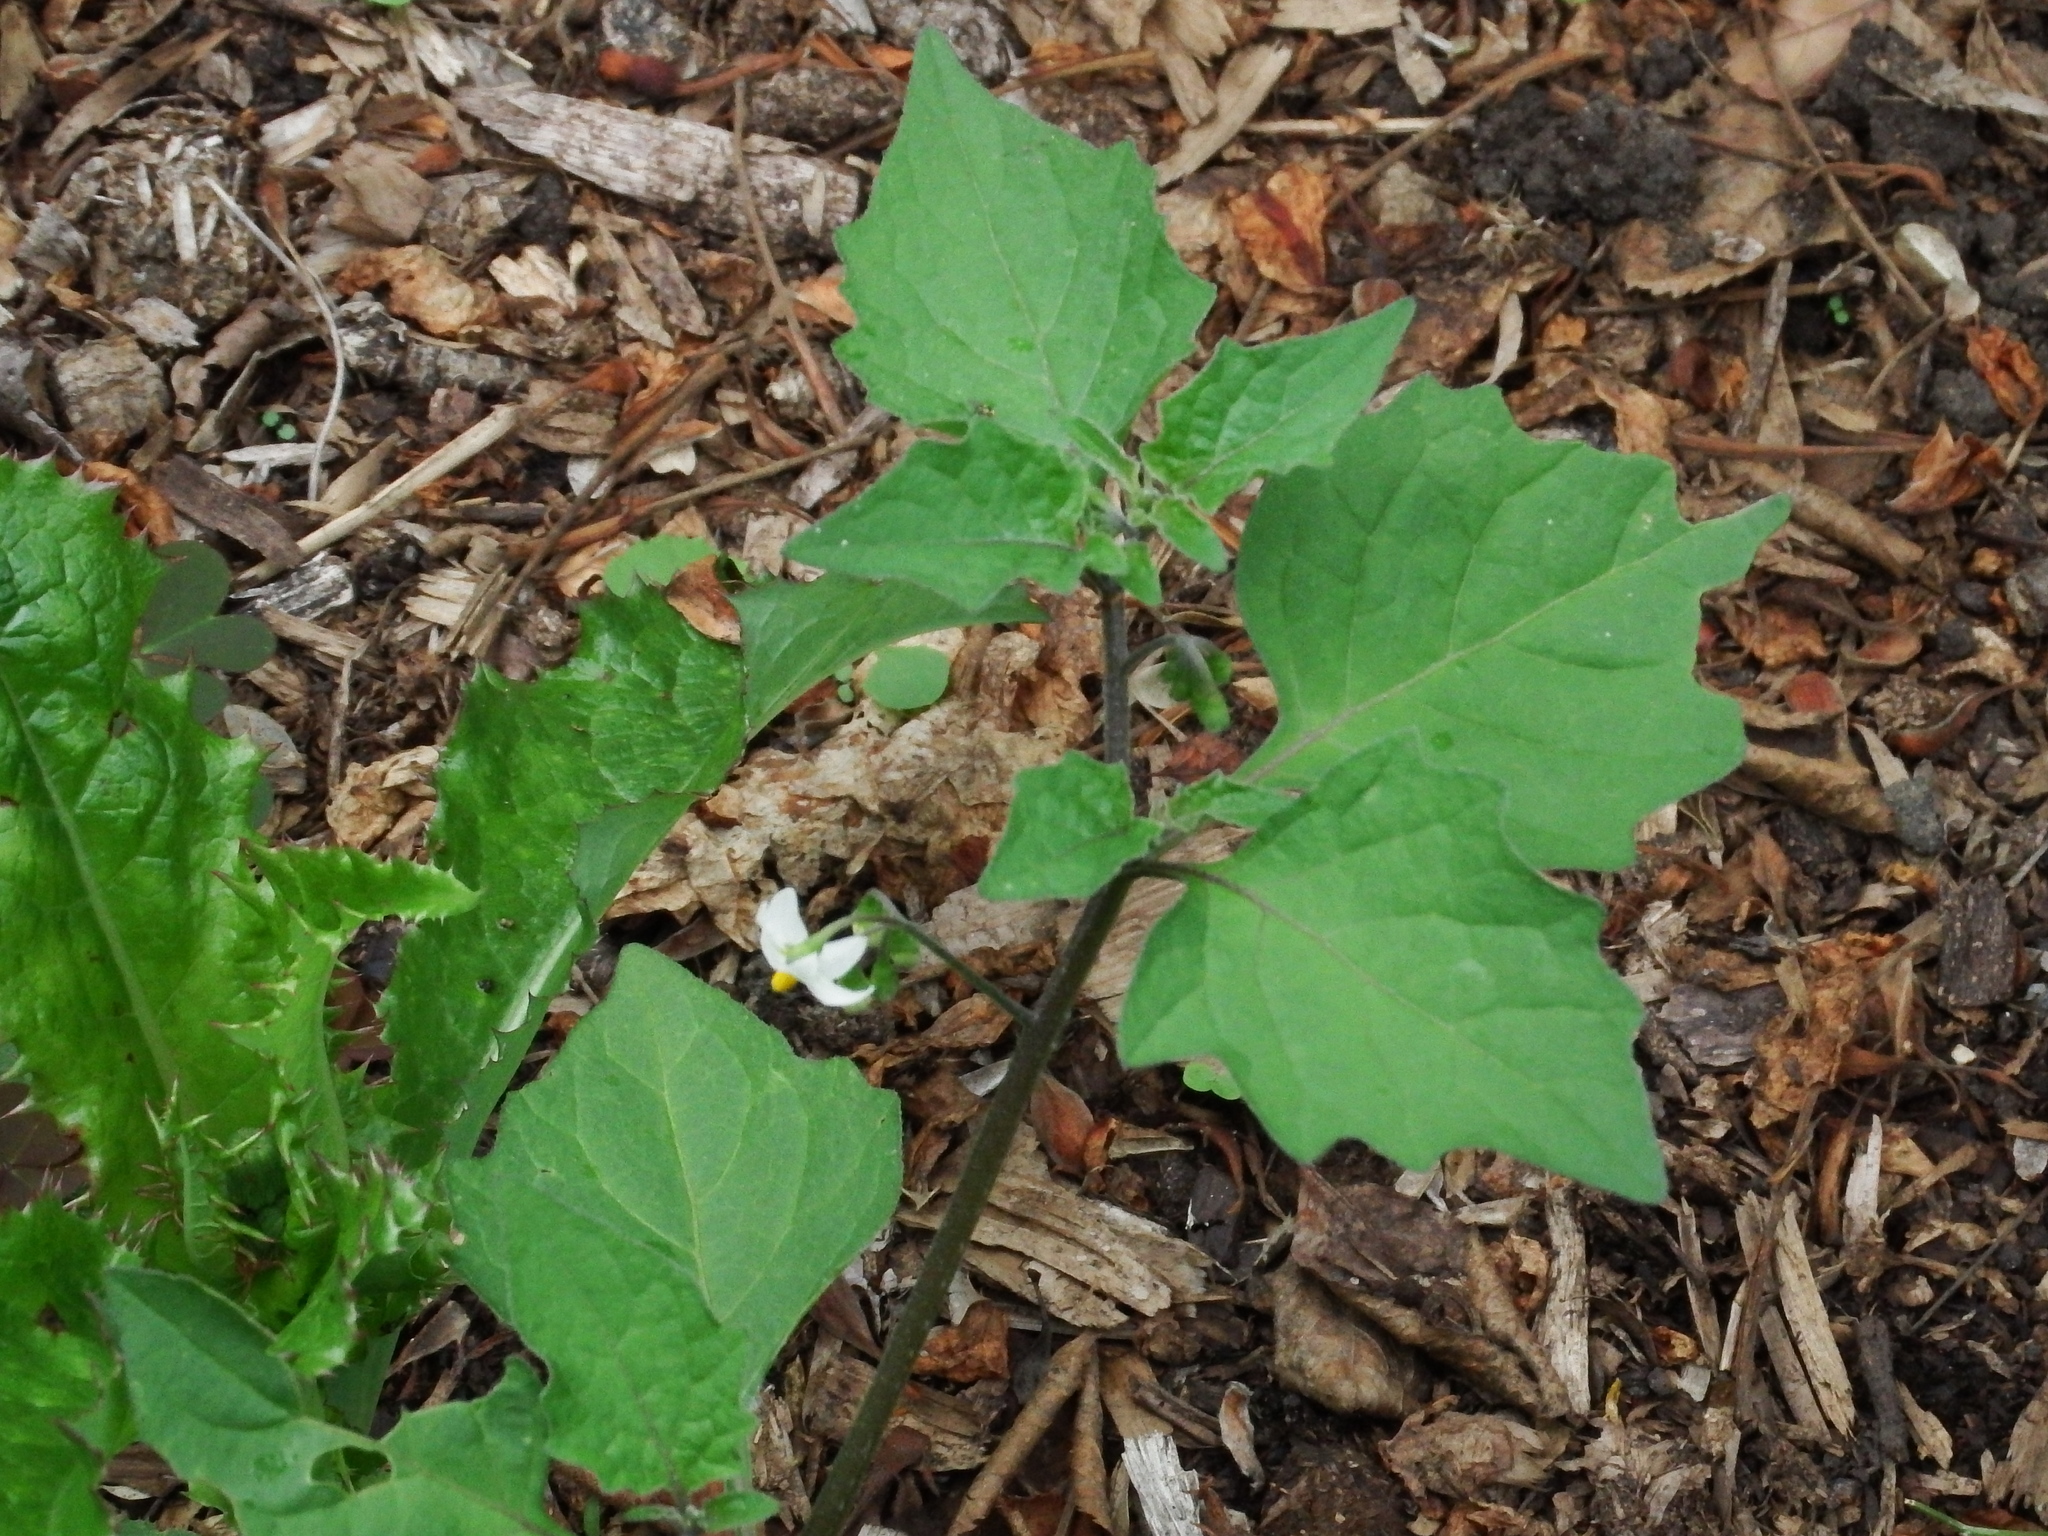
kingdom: Plantae
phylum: Tracheophyta
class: Magnoliopsida
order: Solanales
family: Solanaceae
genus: Solanum
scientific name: Solanum nigrum
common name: Black nightshade
